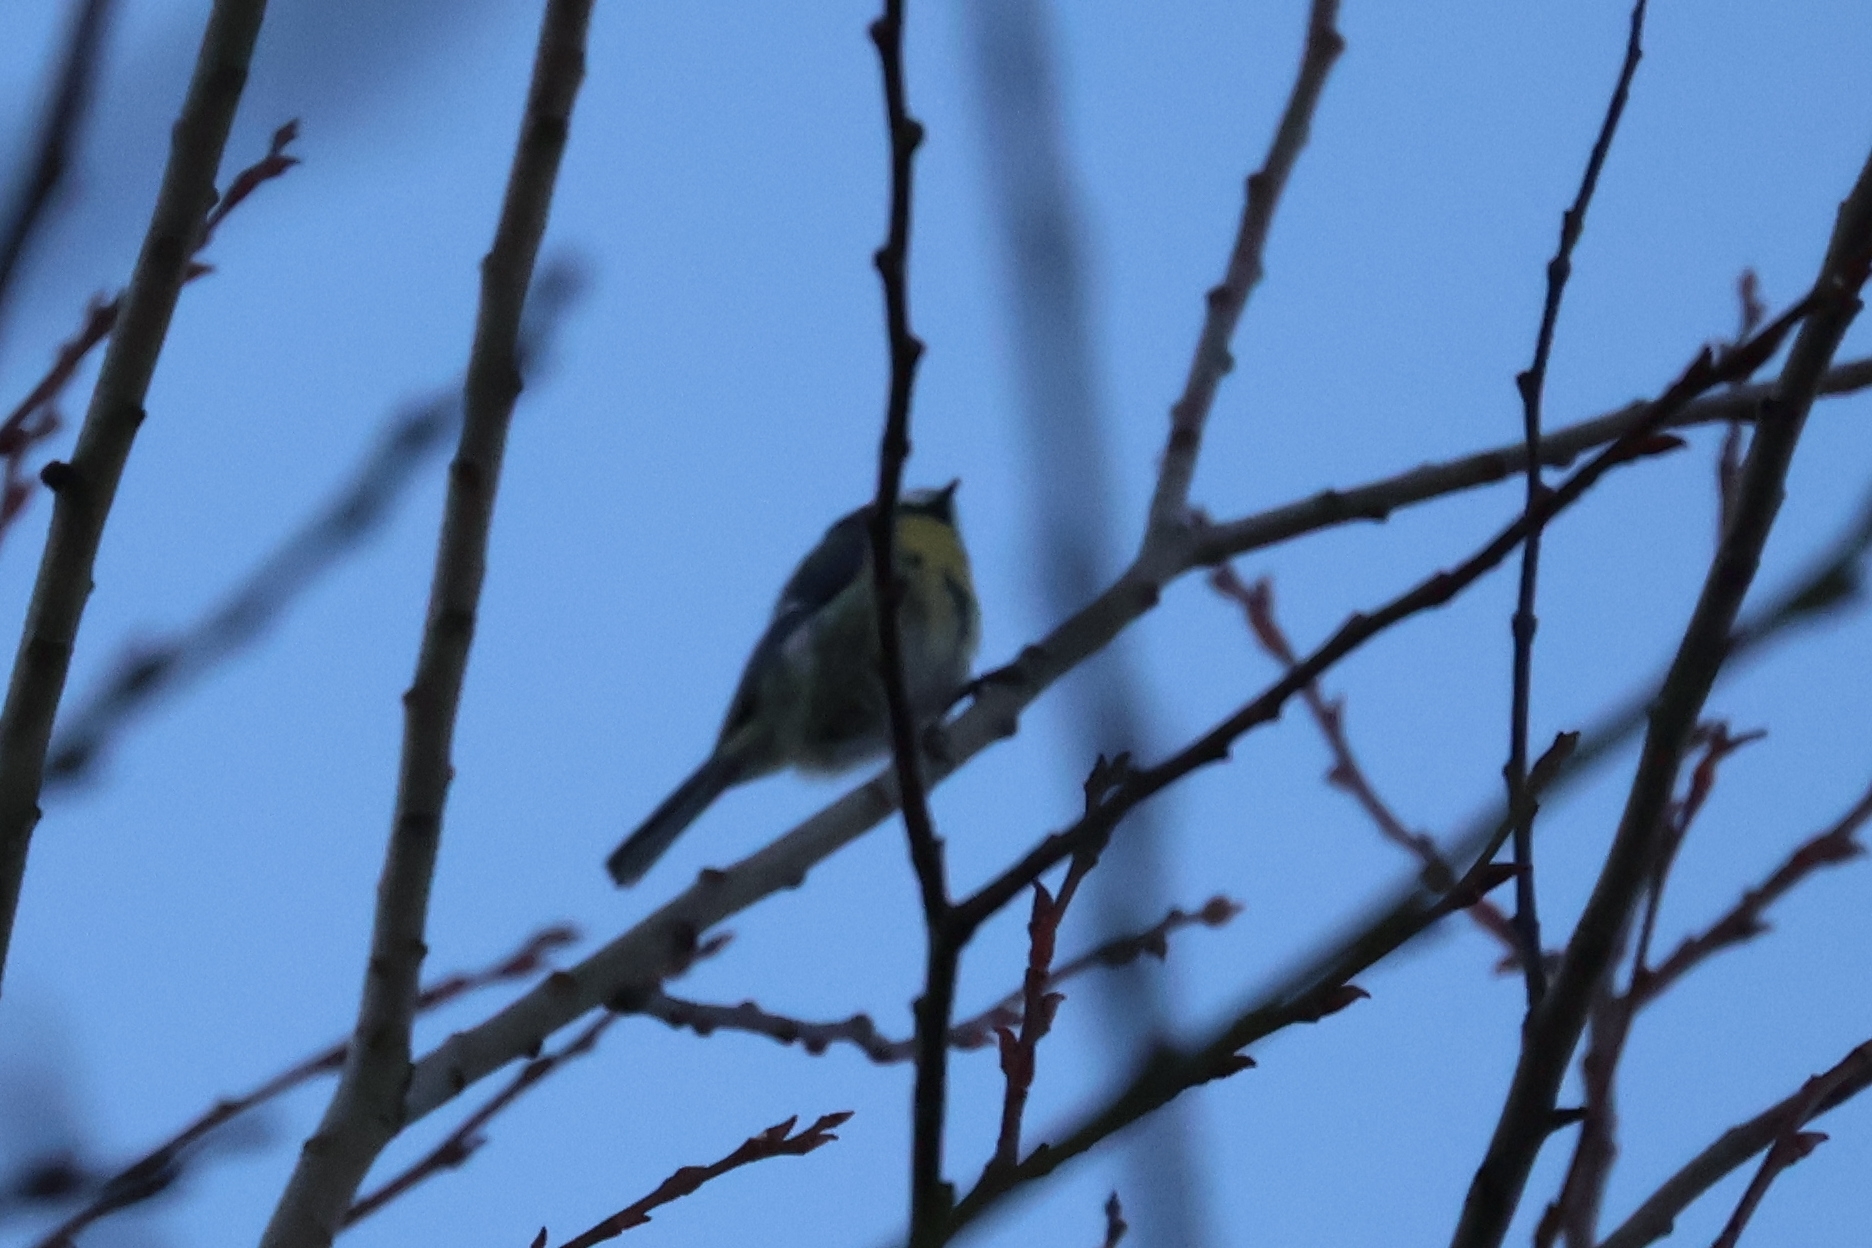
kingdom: Animalia
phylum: Chordata
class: Aves
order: Passeriformes
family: Paridae
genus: Cyanistes
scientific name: Cyanistes caeruleus
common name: Eurasian blue tit
